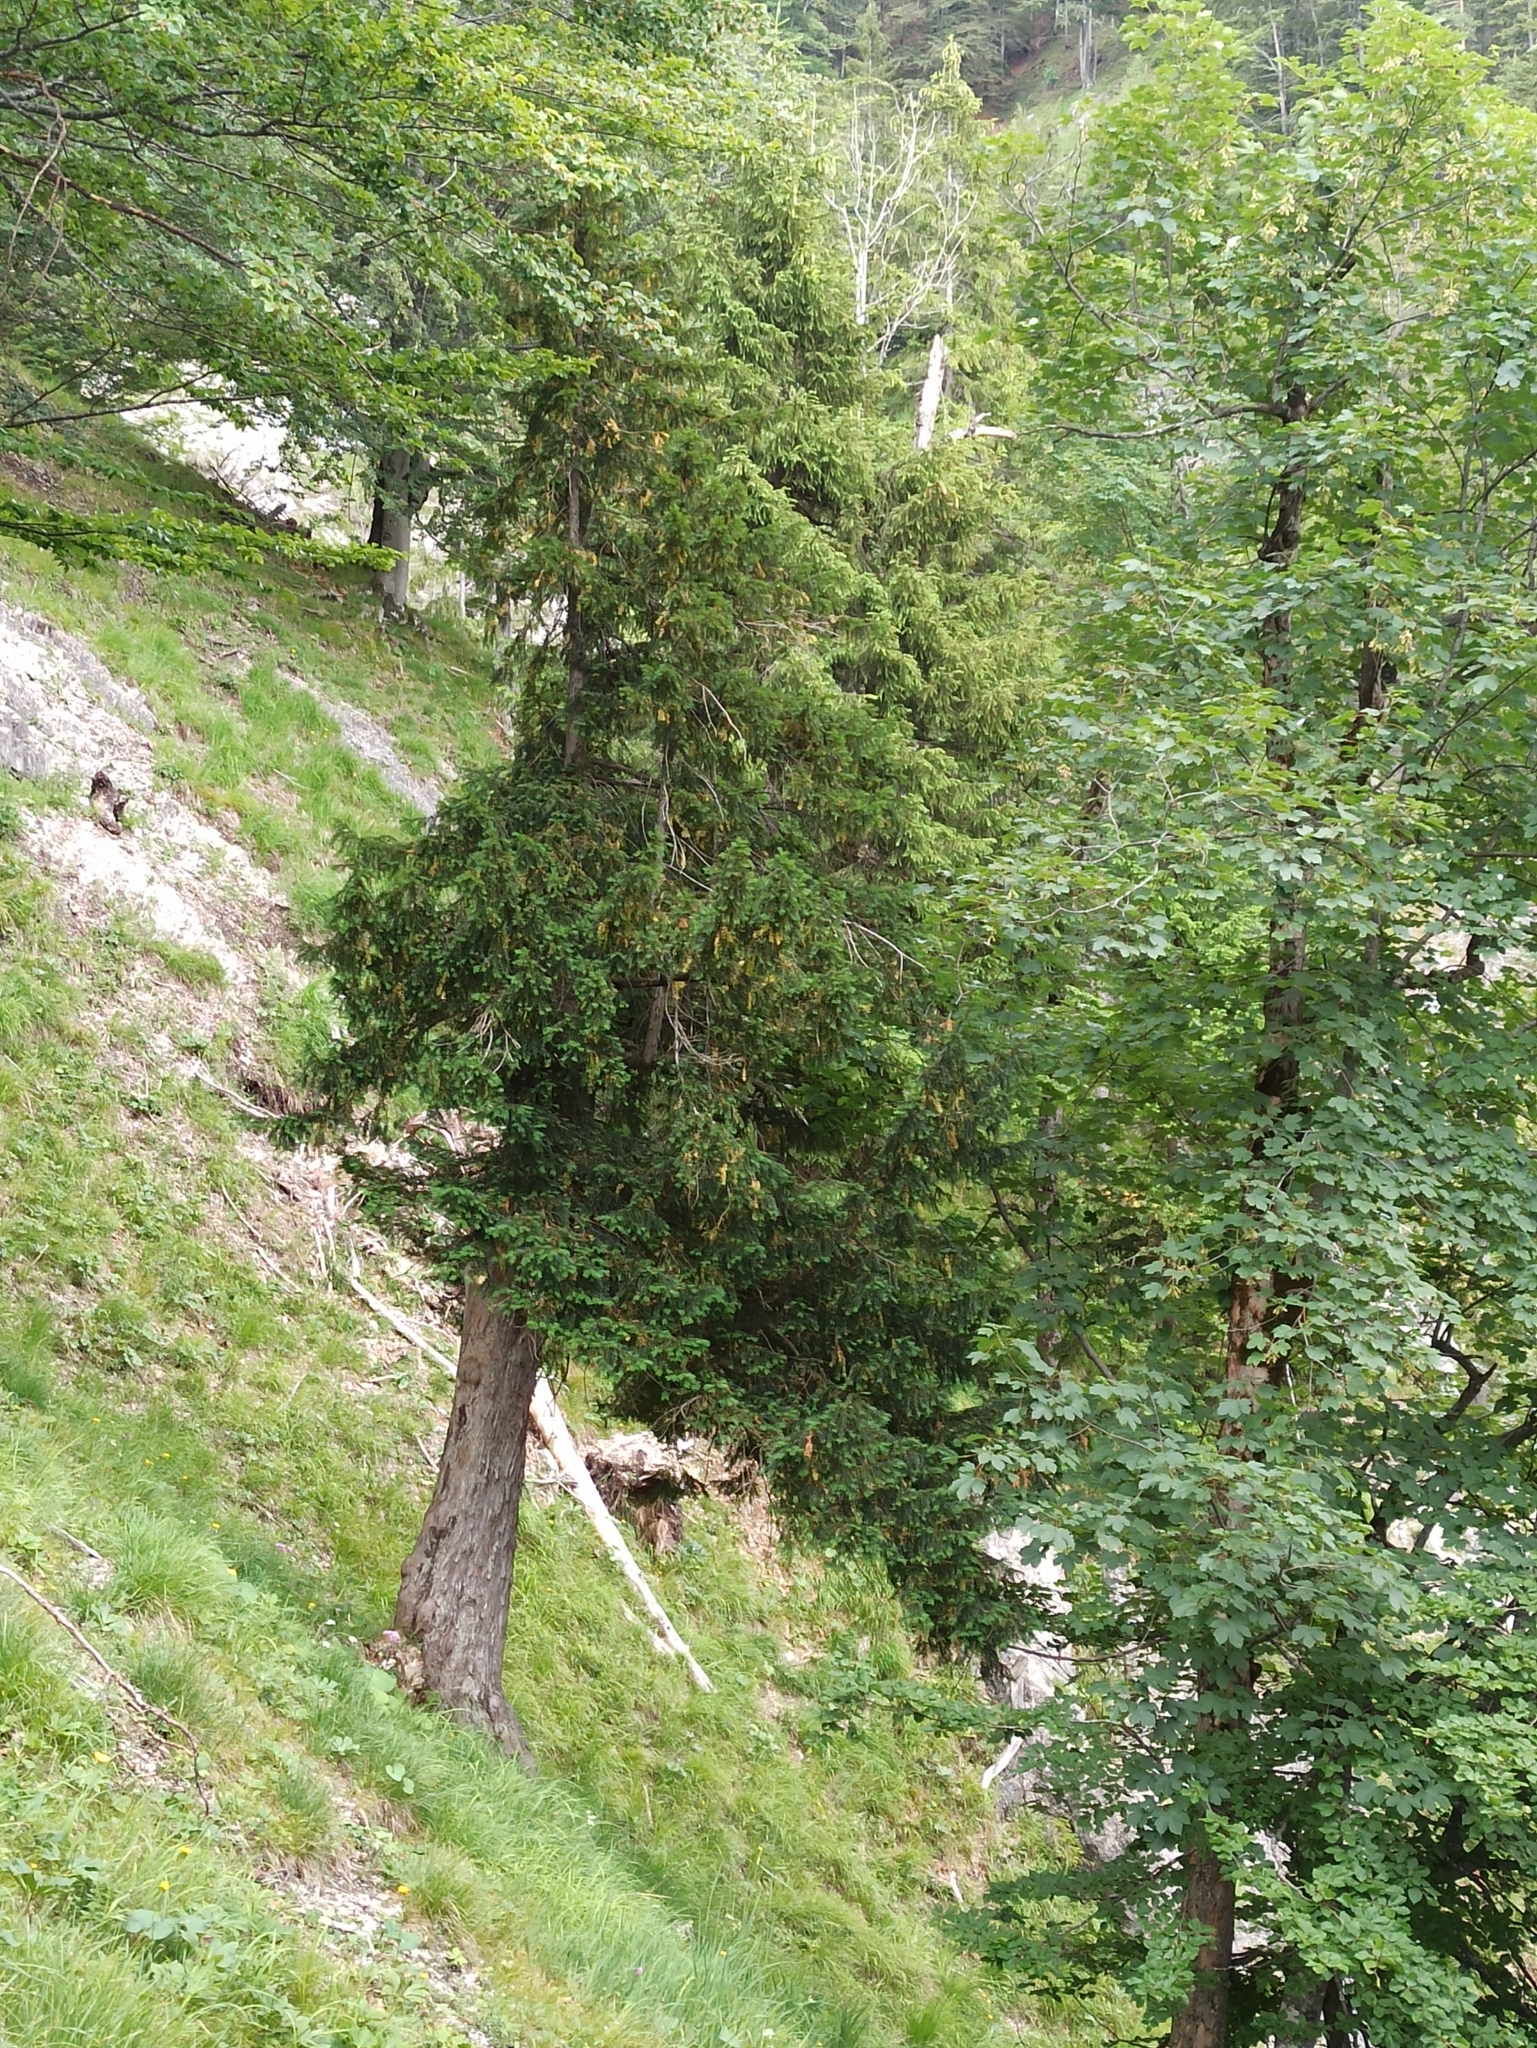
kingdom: Plantae
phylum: Tracheophyta
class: Pinopsida
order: Pinales
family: Taxaceae
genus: Taxus
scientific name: Taxus baccata
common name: Yew
